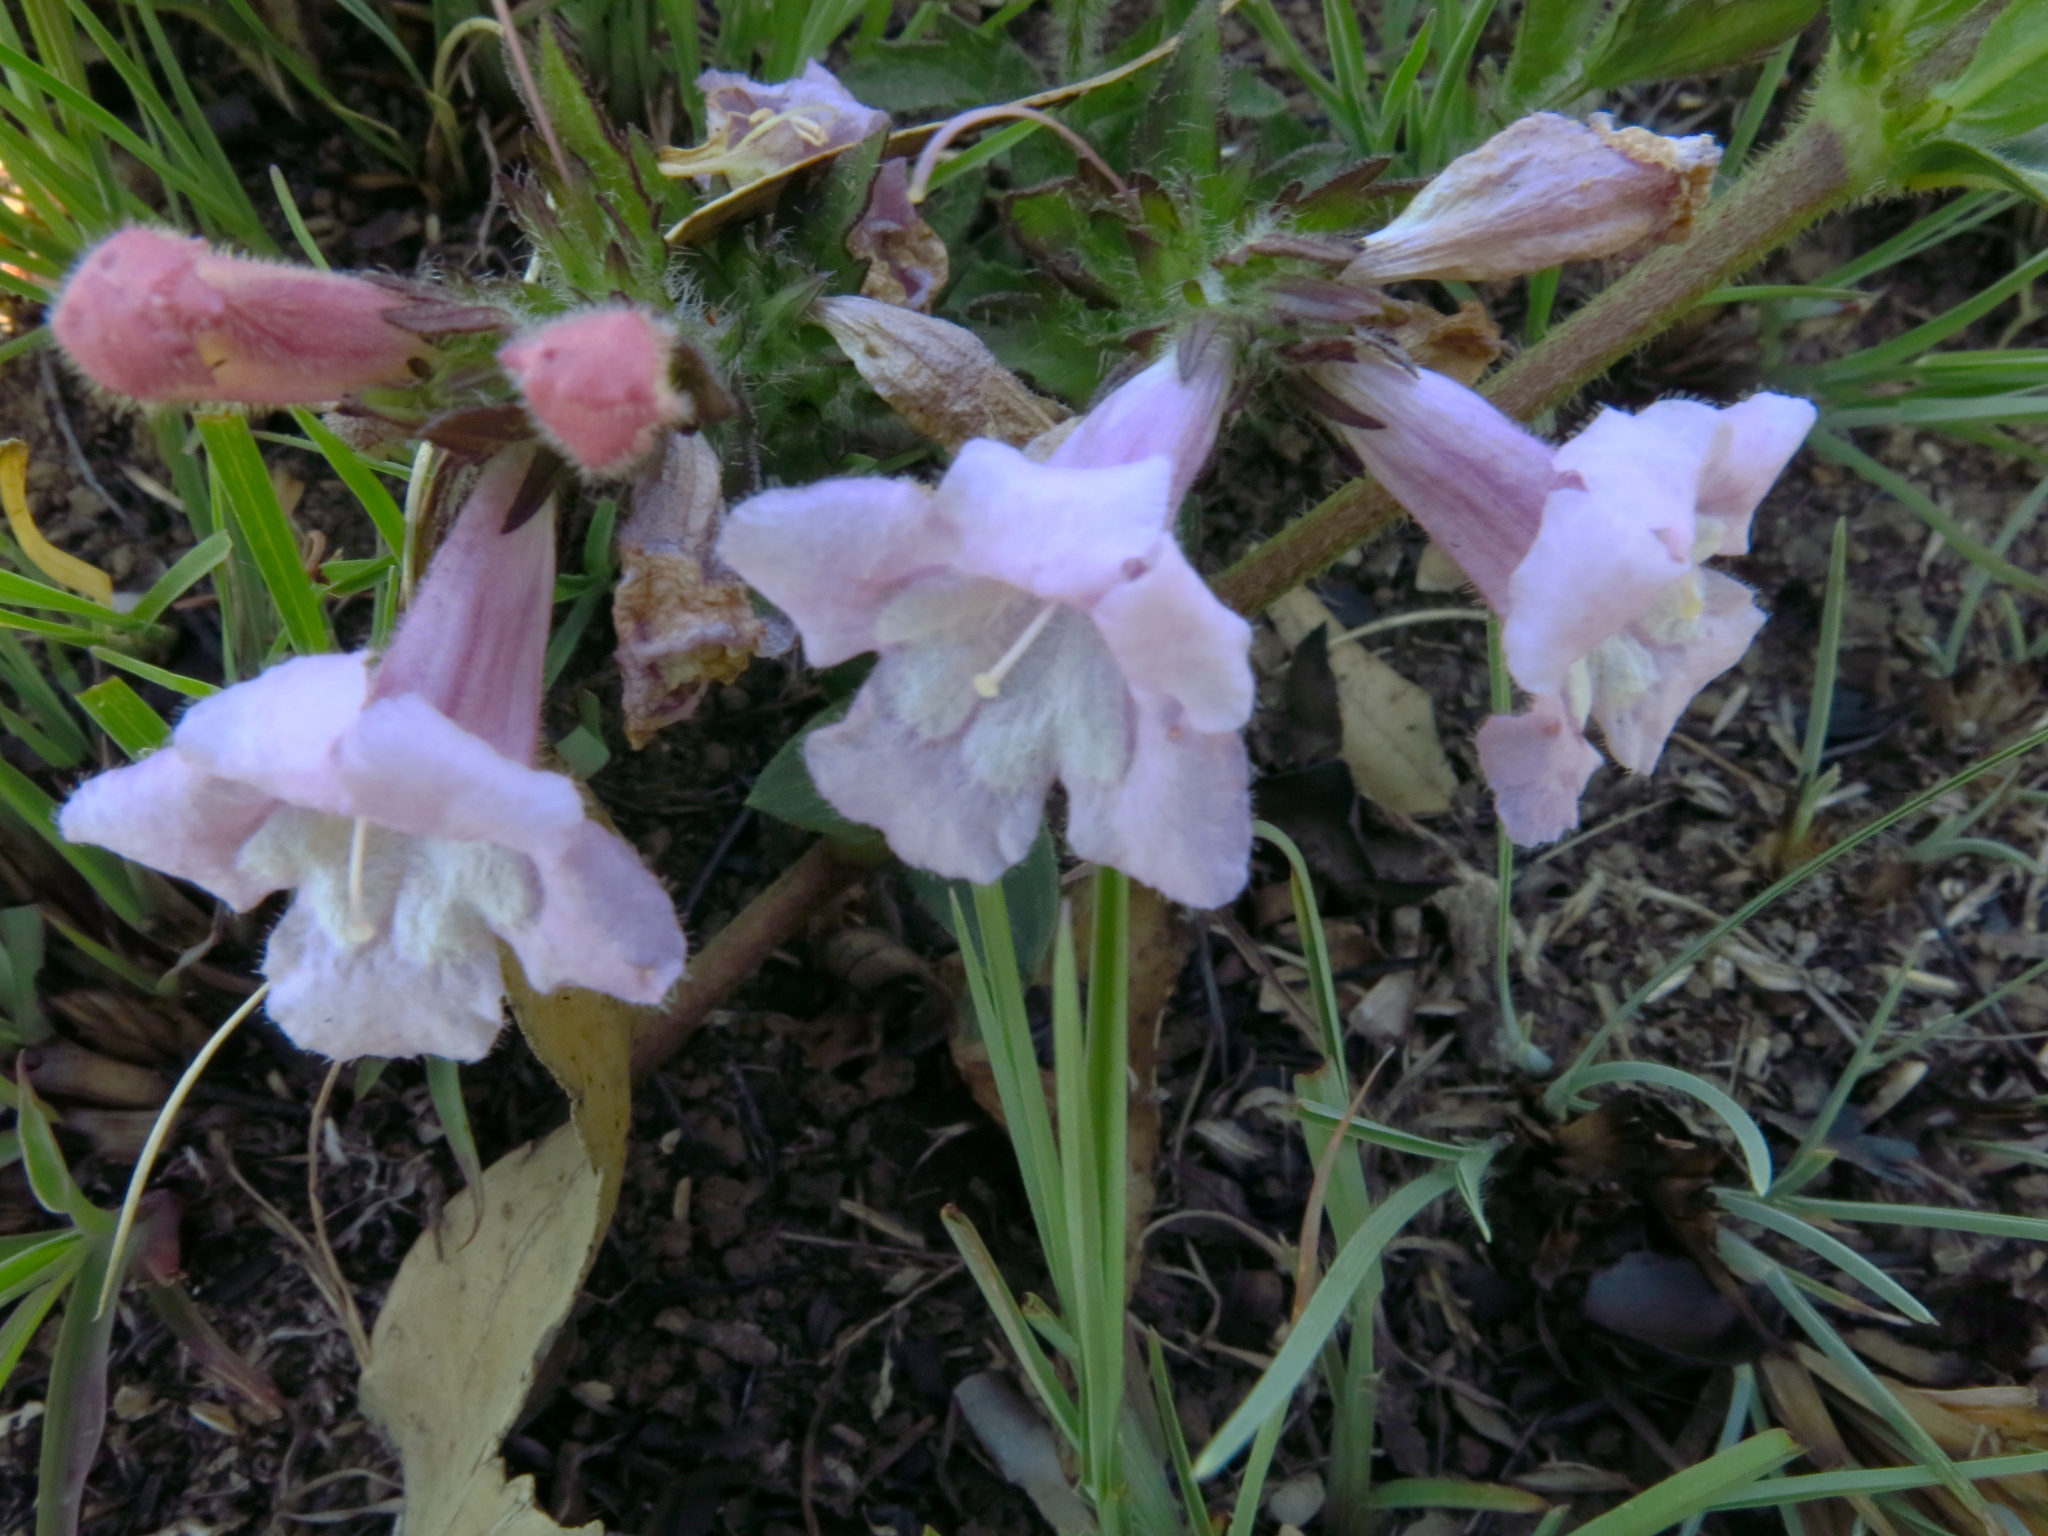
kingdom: Plantae
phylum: Tracheophyta
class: Magnoliopsida
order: Lamiales
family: Orobanchaceae
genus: Graderia
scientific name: Graderia scabra
